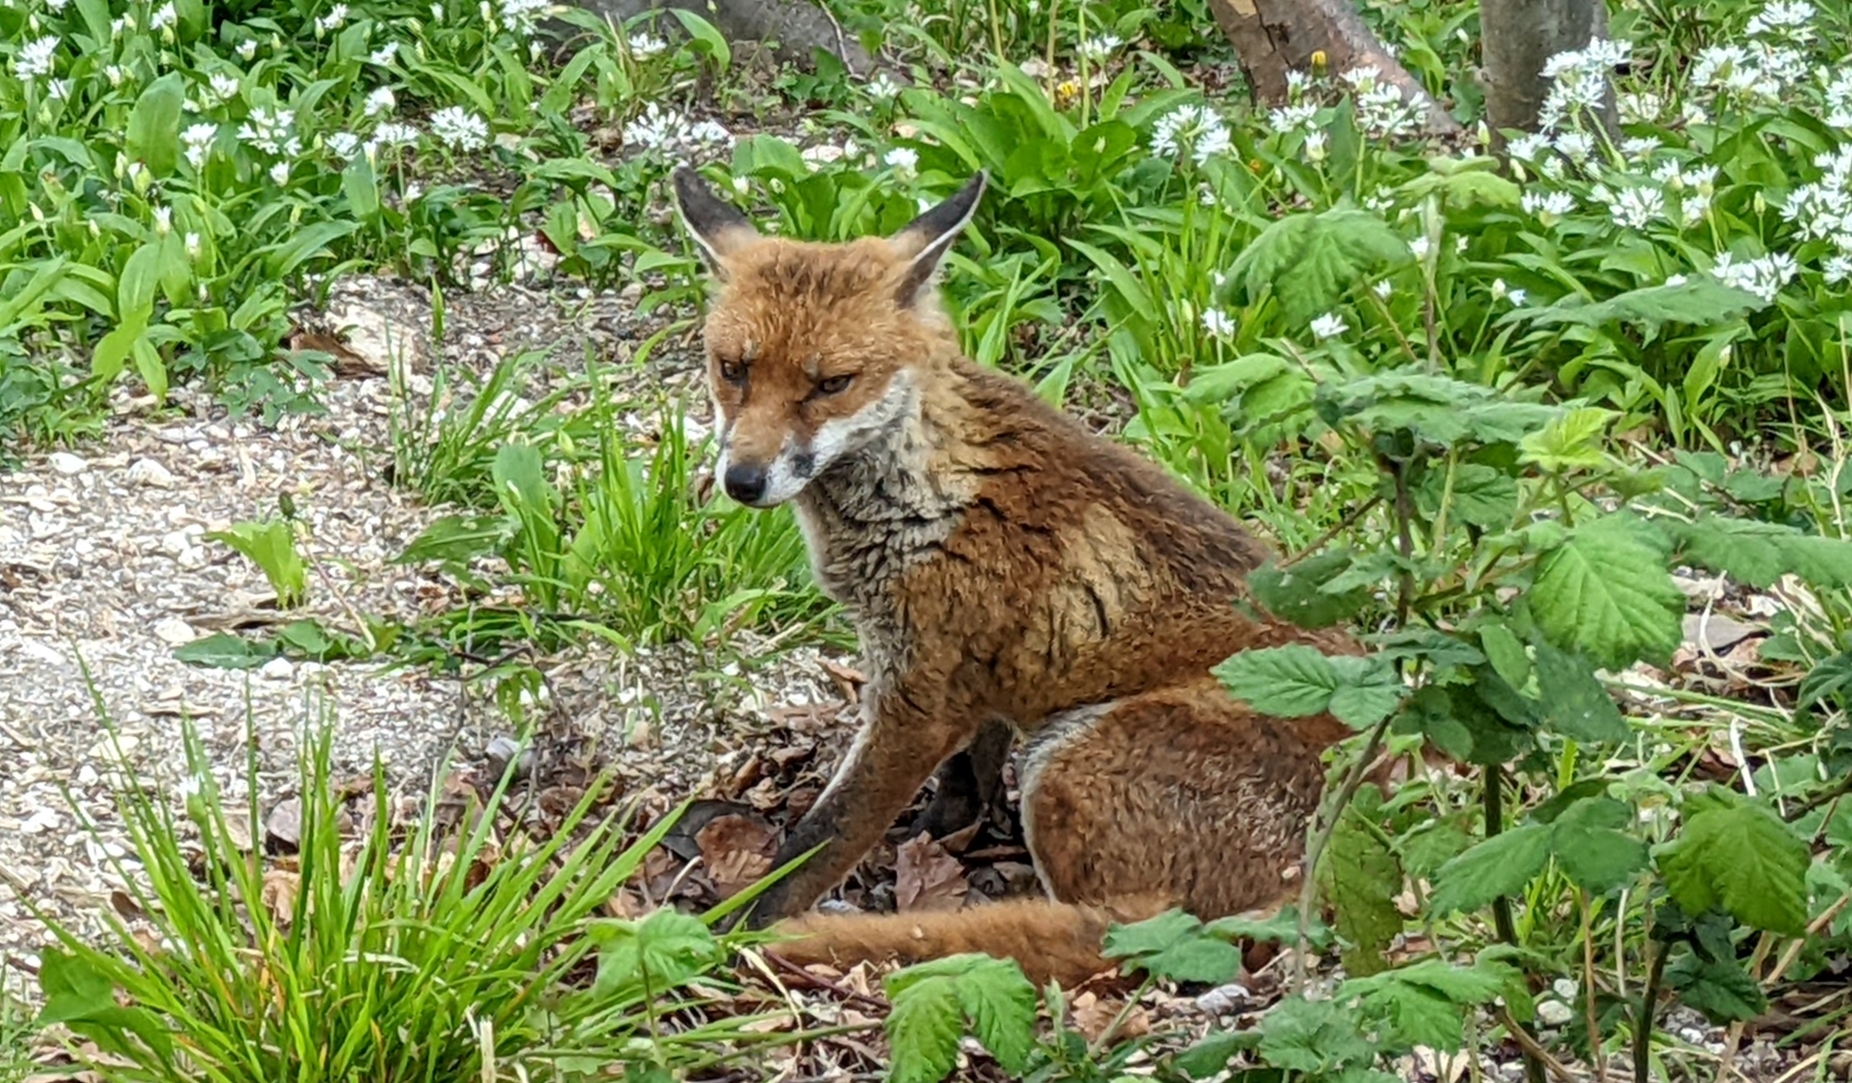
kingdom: Animalia
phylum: Chordata
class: Mammalia
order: Carnivora
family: Canidae
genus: Vulpes
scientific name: Vulpes vulpes
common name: Red fox
